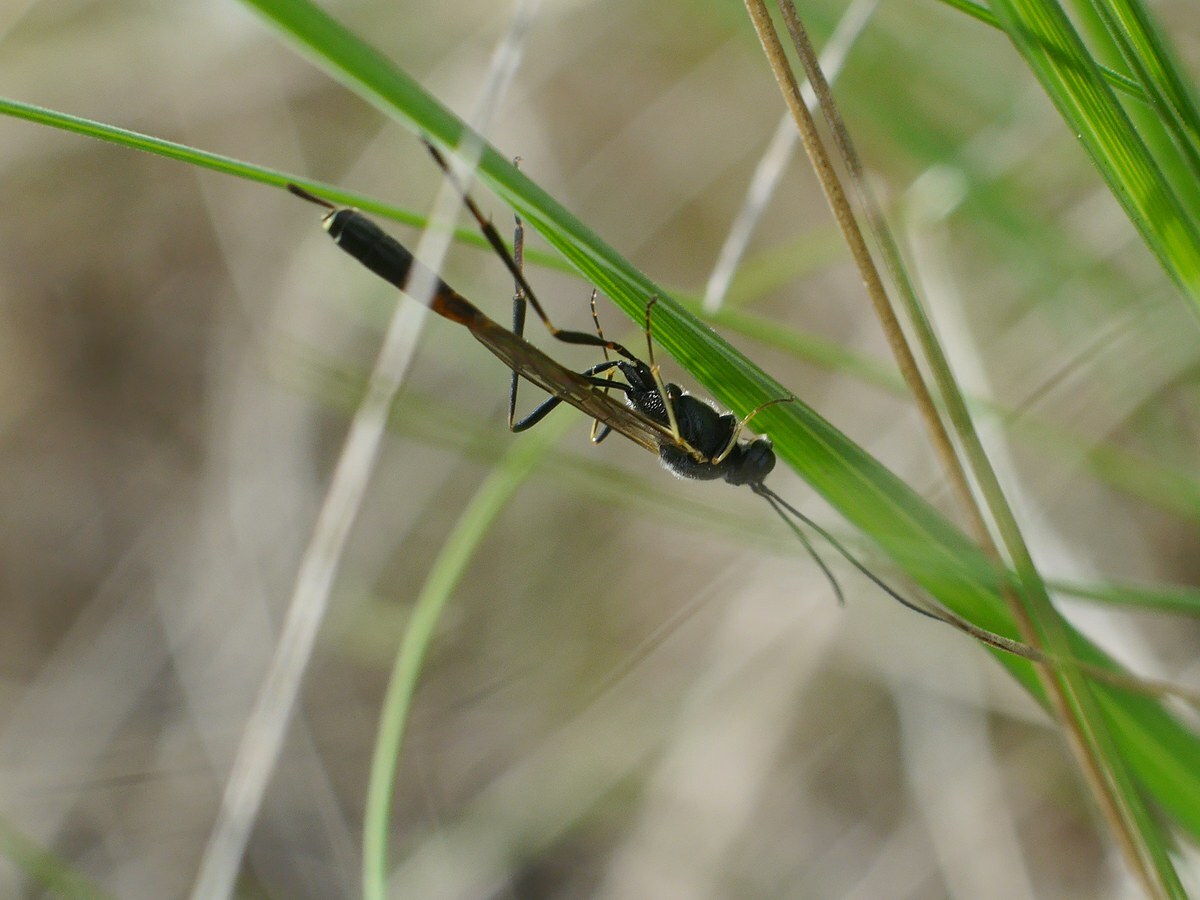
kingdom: Animalia
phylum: Arthropoda
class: Insecta
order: Hymenoptera
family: Ichneumonidae
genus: Barylypa
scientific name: Barylypa uniguttata
